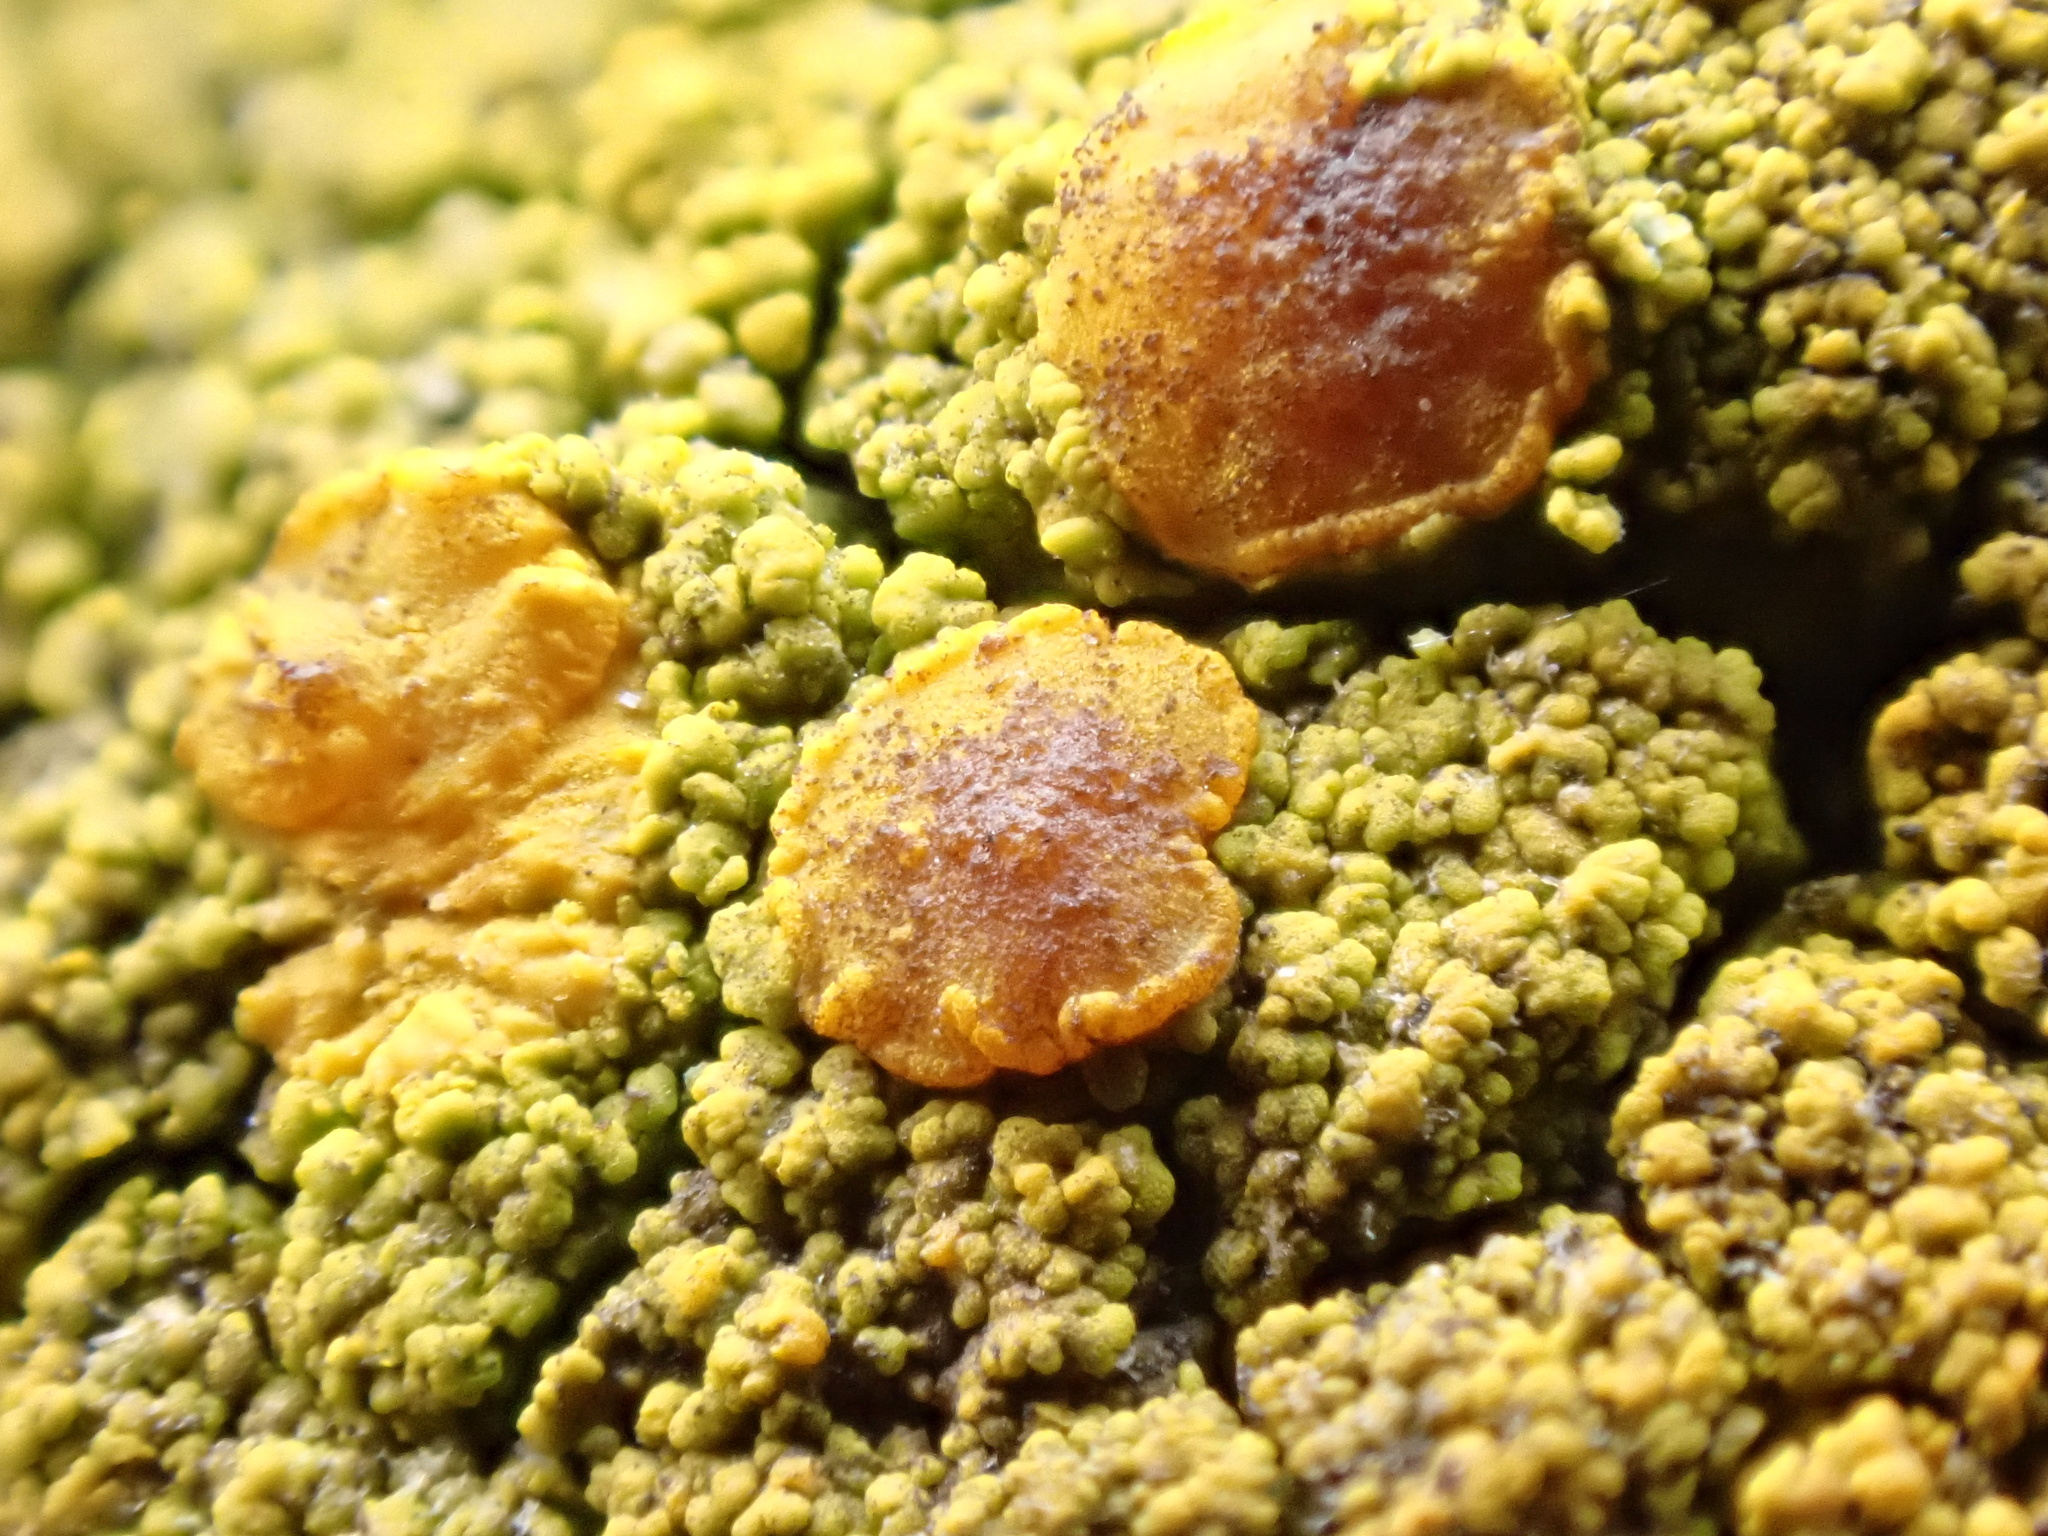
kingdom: Fungi
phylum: Ascomycota
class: Candelariomycetes
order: Candelariales
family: Candelariaceae
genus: Candelariella
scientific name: Candelariella vitellina
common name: Common goldspeck
